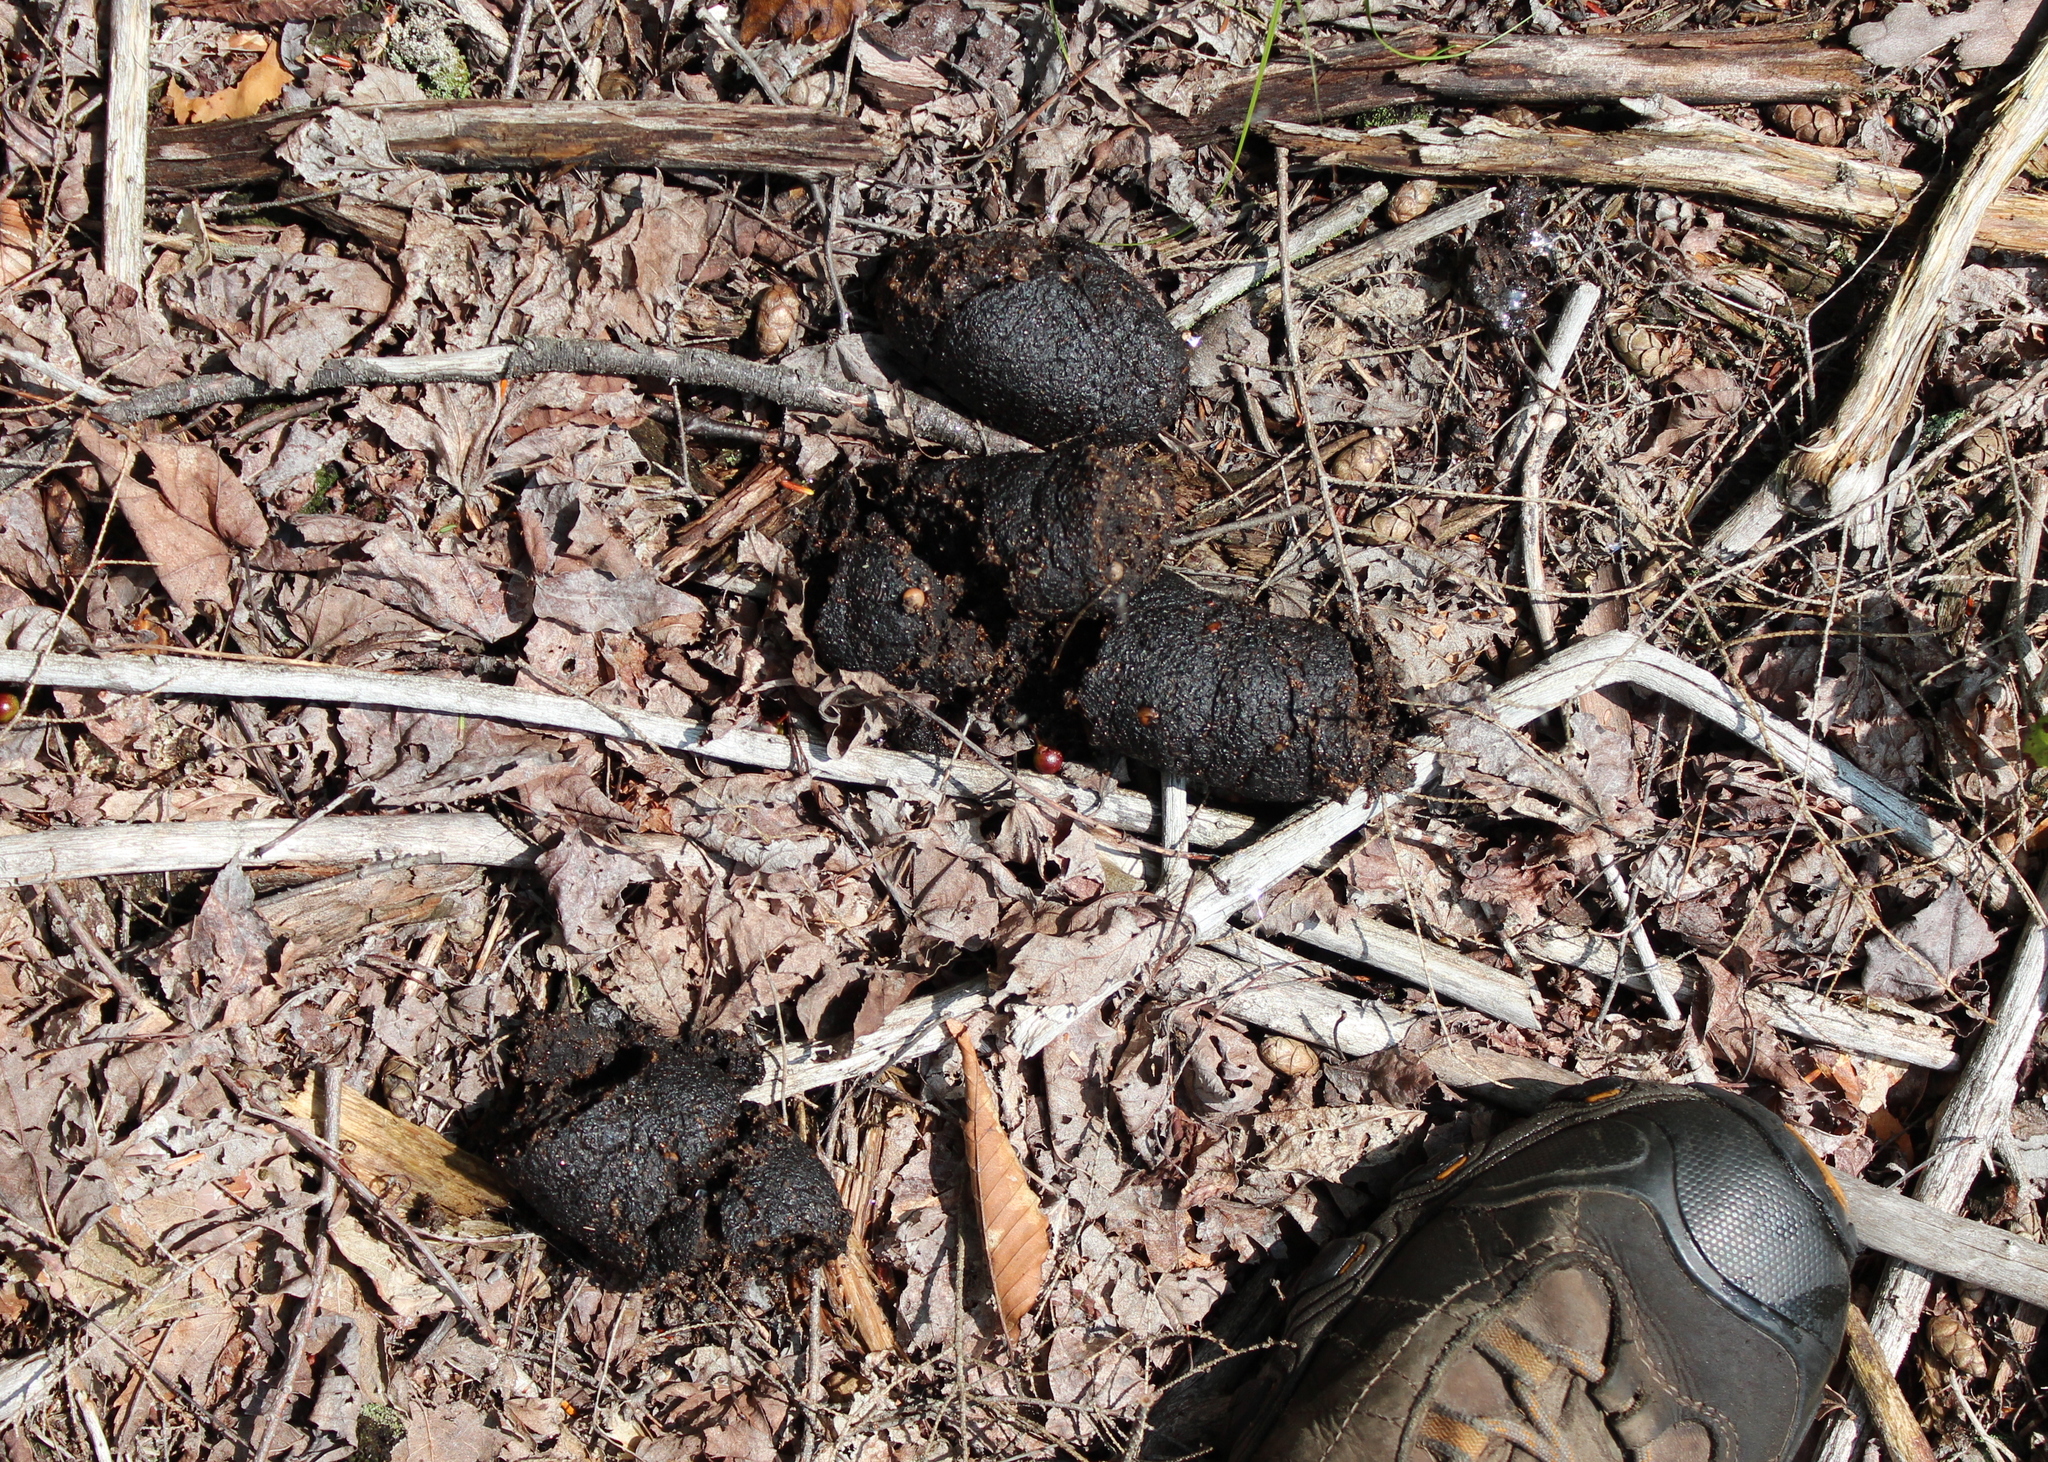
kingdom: Animalia
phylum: Chordata
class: Mammalia
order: Carnivora
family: Ursidae
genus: Ursus
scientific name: Ursus americanus
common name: American black bear
